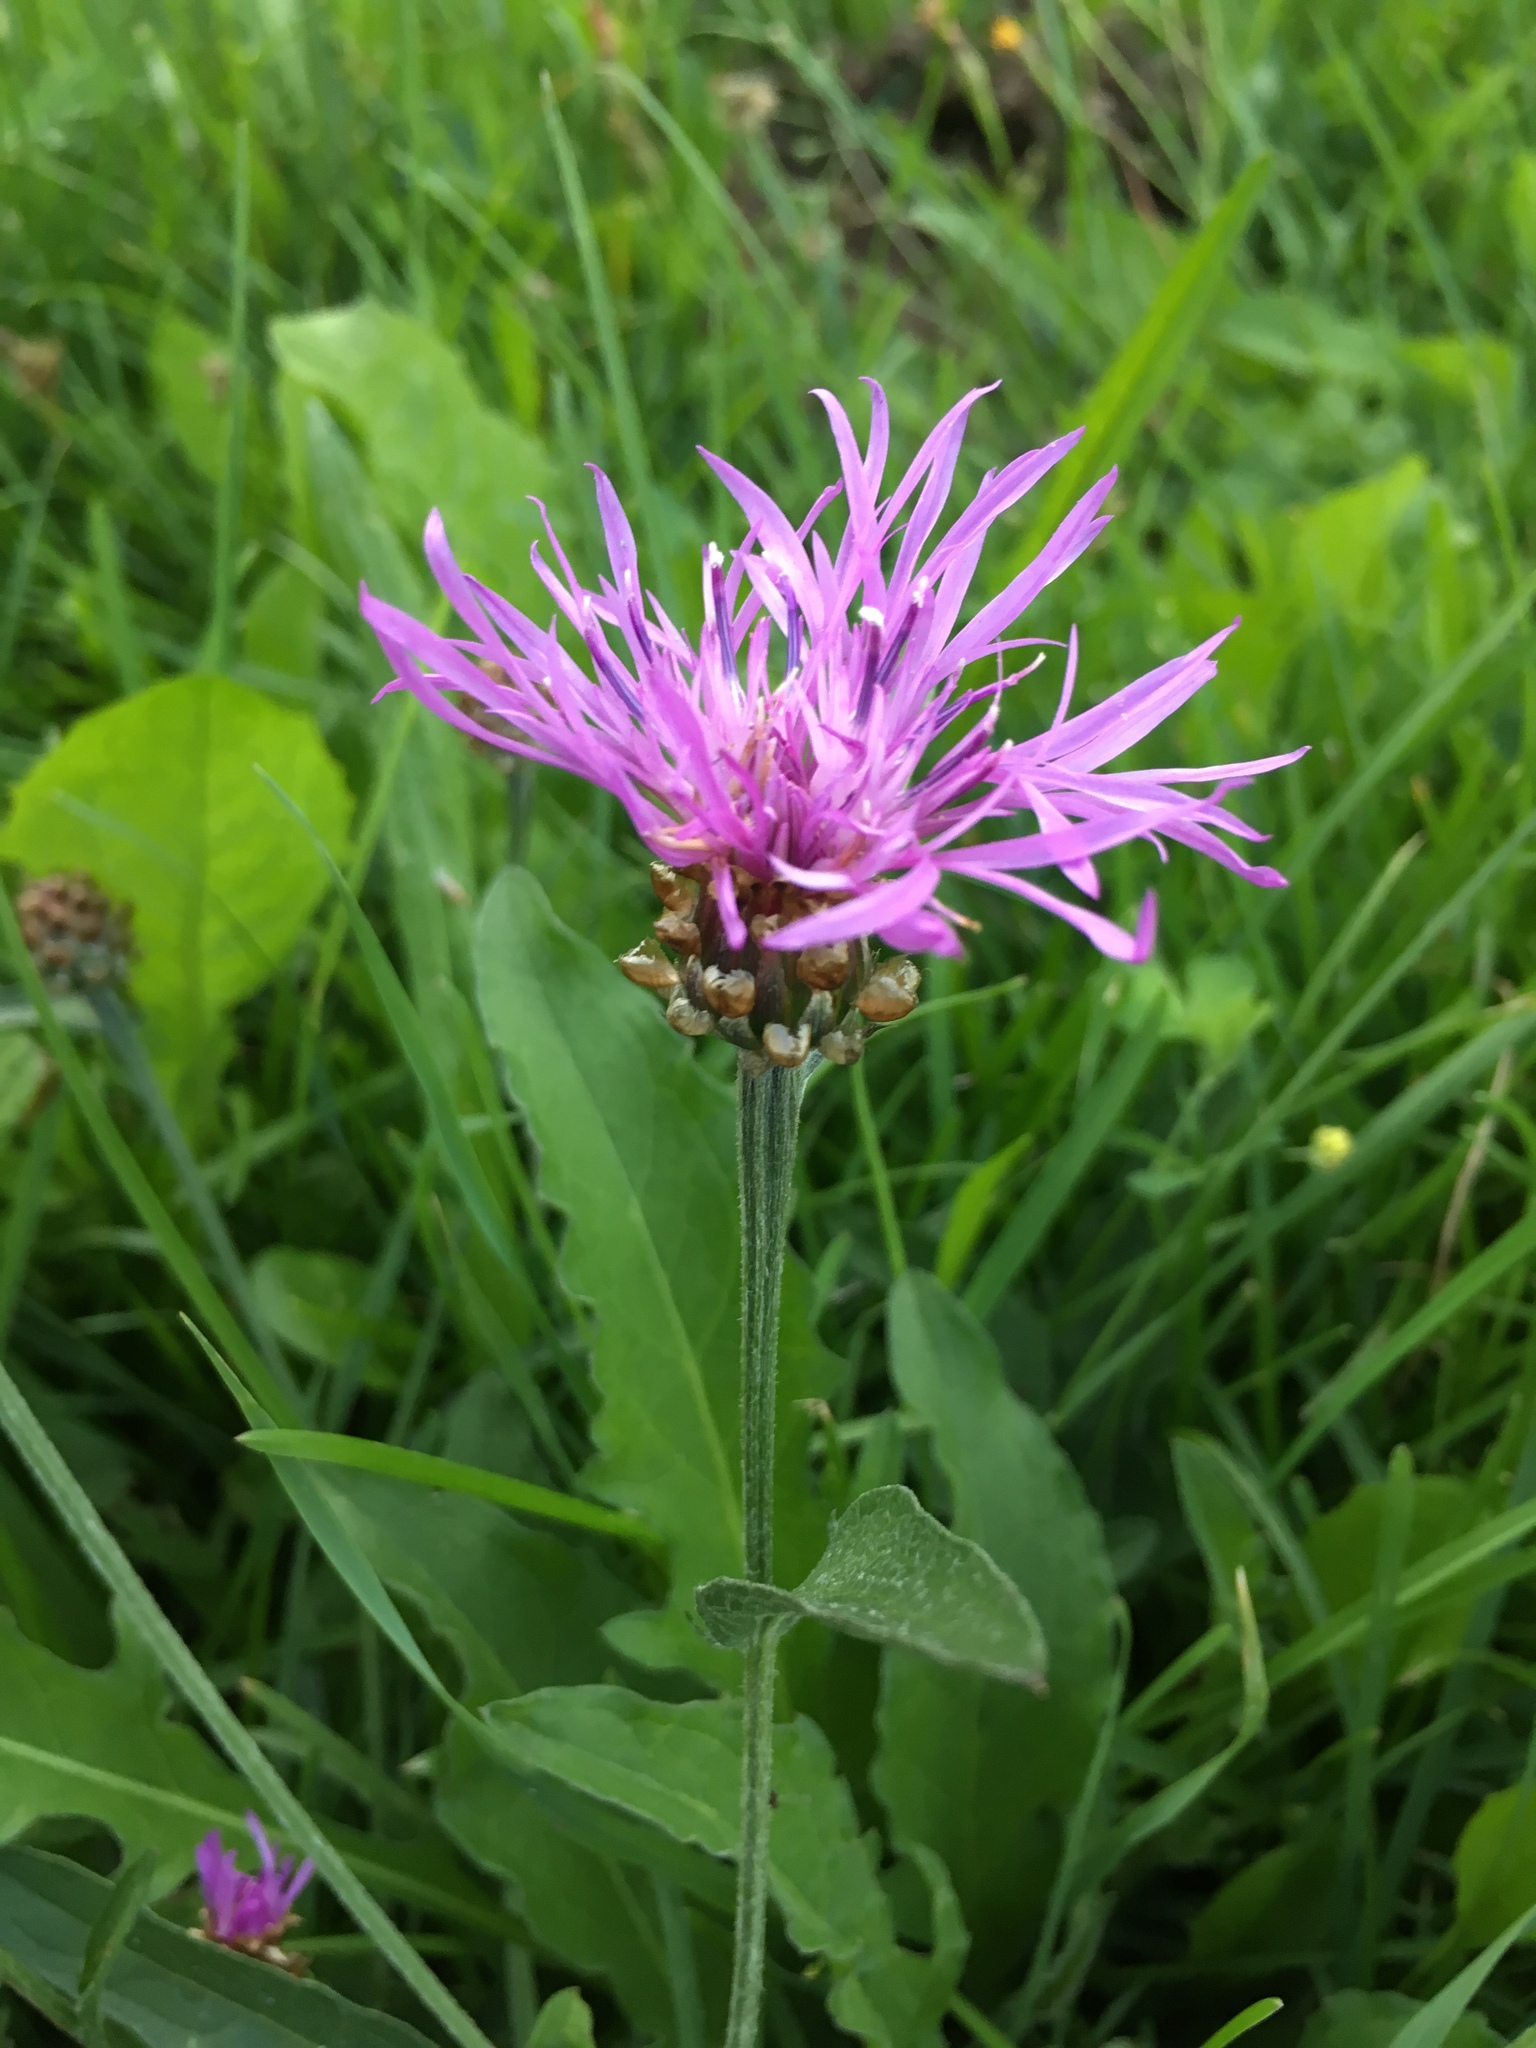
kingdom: Plantae
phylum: Tracheophyta
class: Magnoliopsida
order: Asterales
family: Asteraceae
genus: Centaurea
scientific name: Centaurea jacea
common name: Brown knapweed
